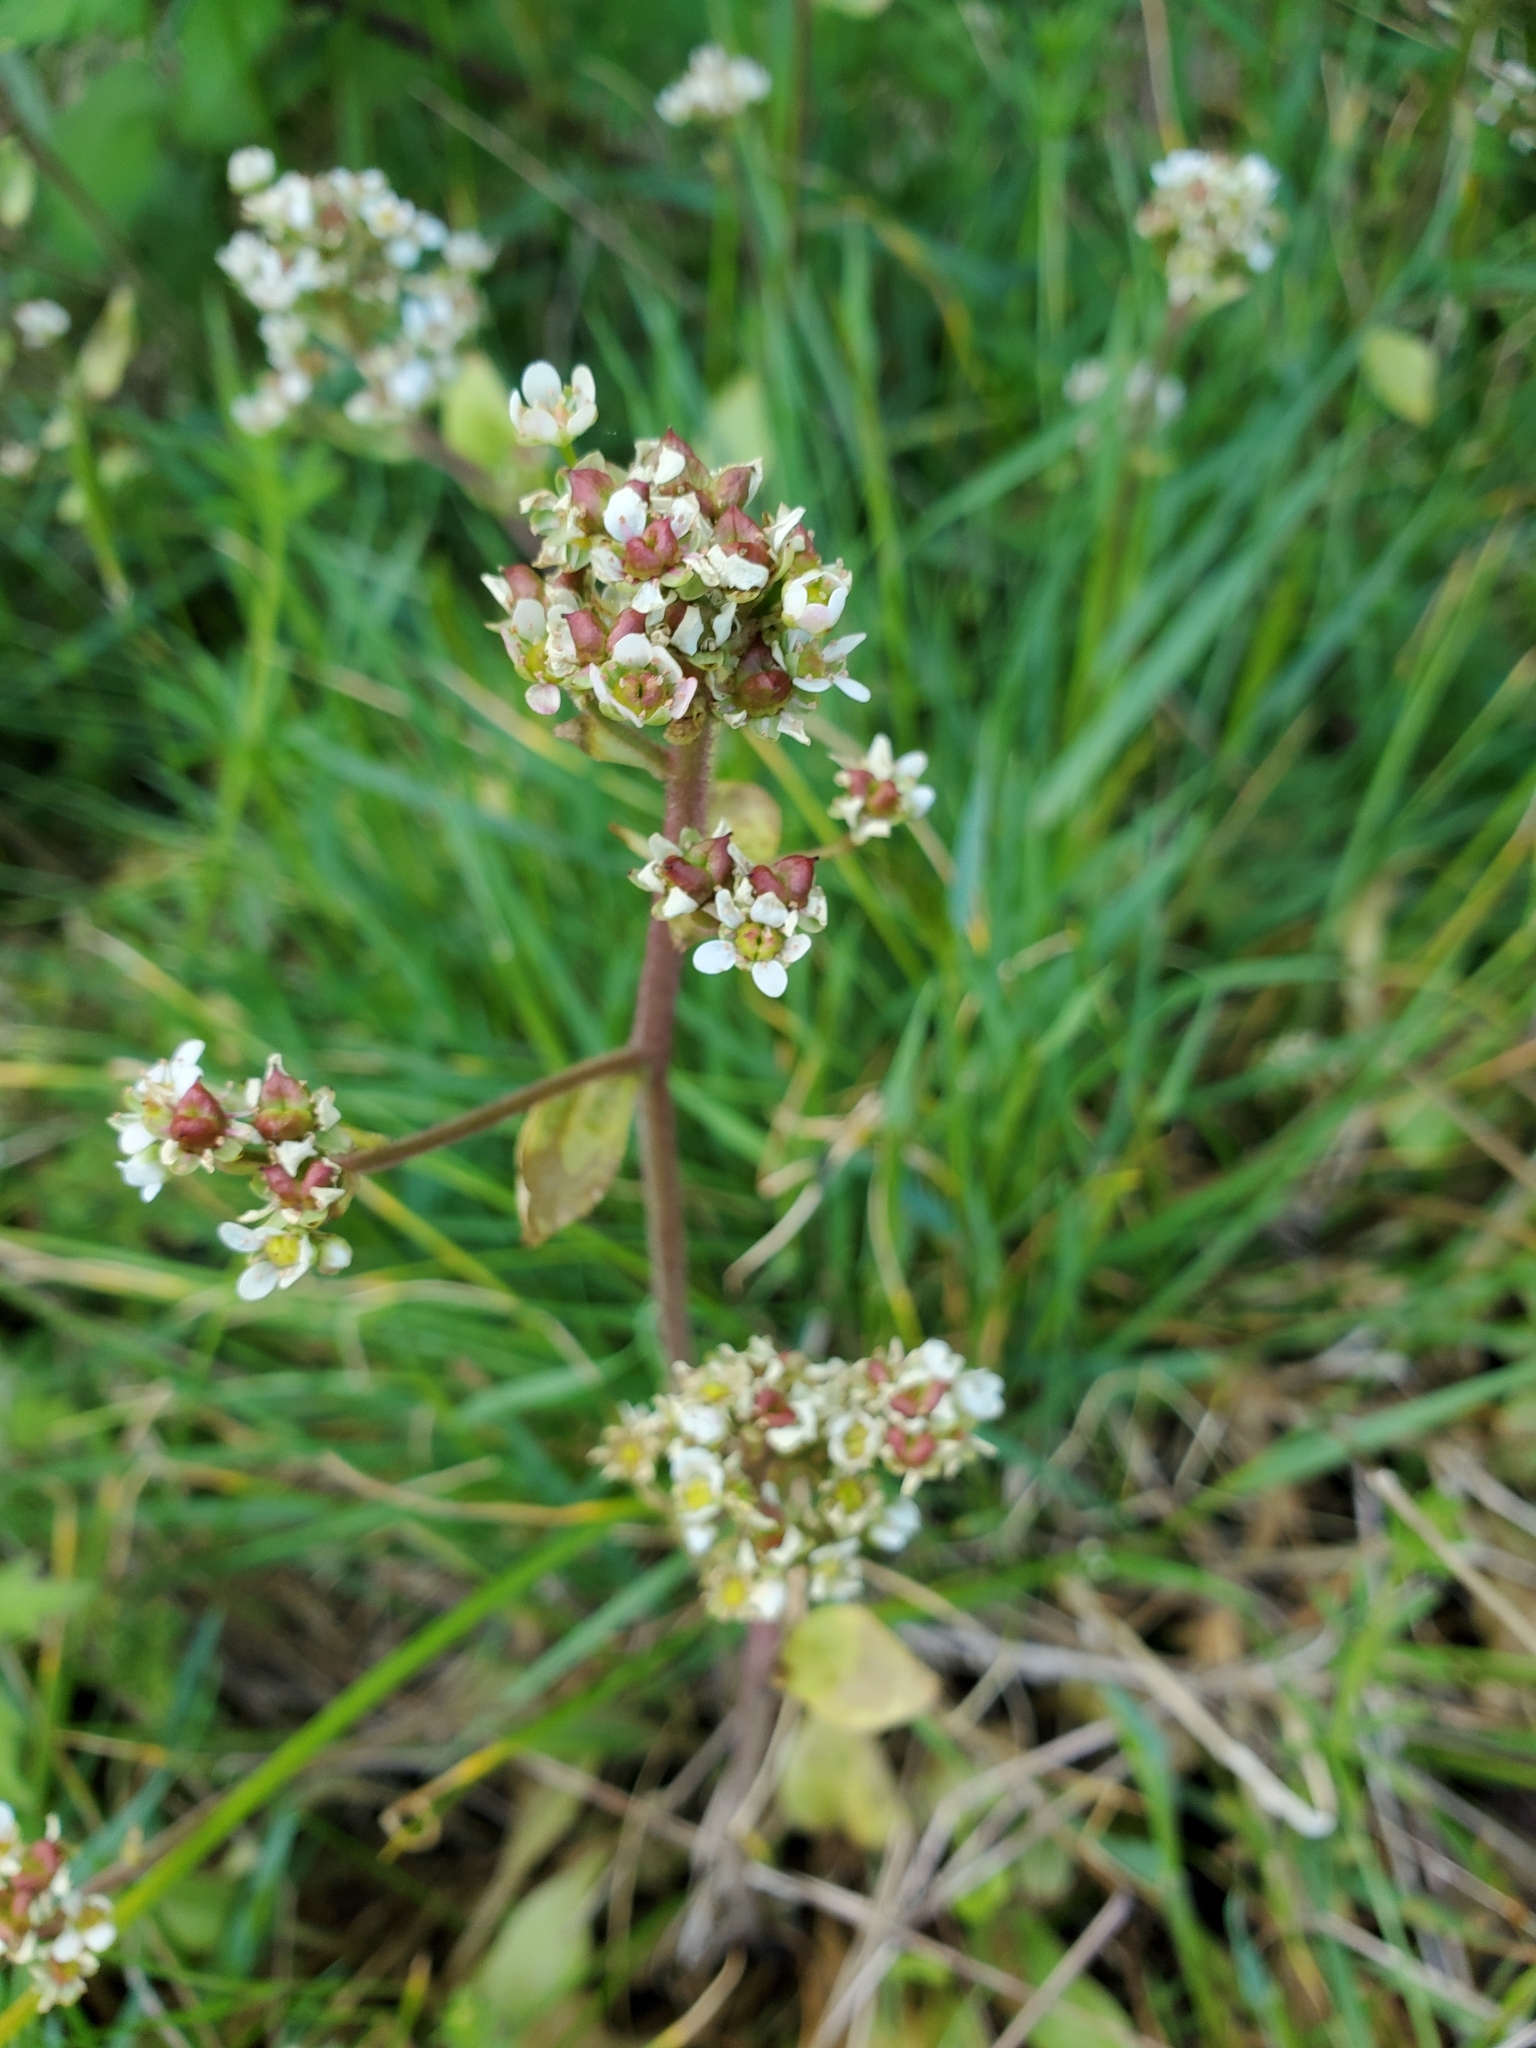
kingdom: Plantae
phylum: Tracheophyta
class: Magnoliopsida
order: Saxifragales
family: Saxifragaceae
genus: Micranthes
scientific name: Micranthes integrifolia
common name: Wholeleaf saxifrage
